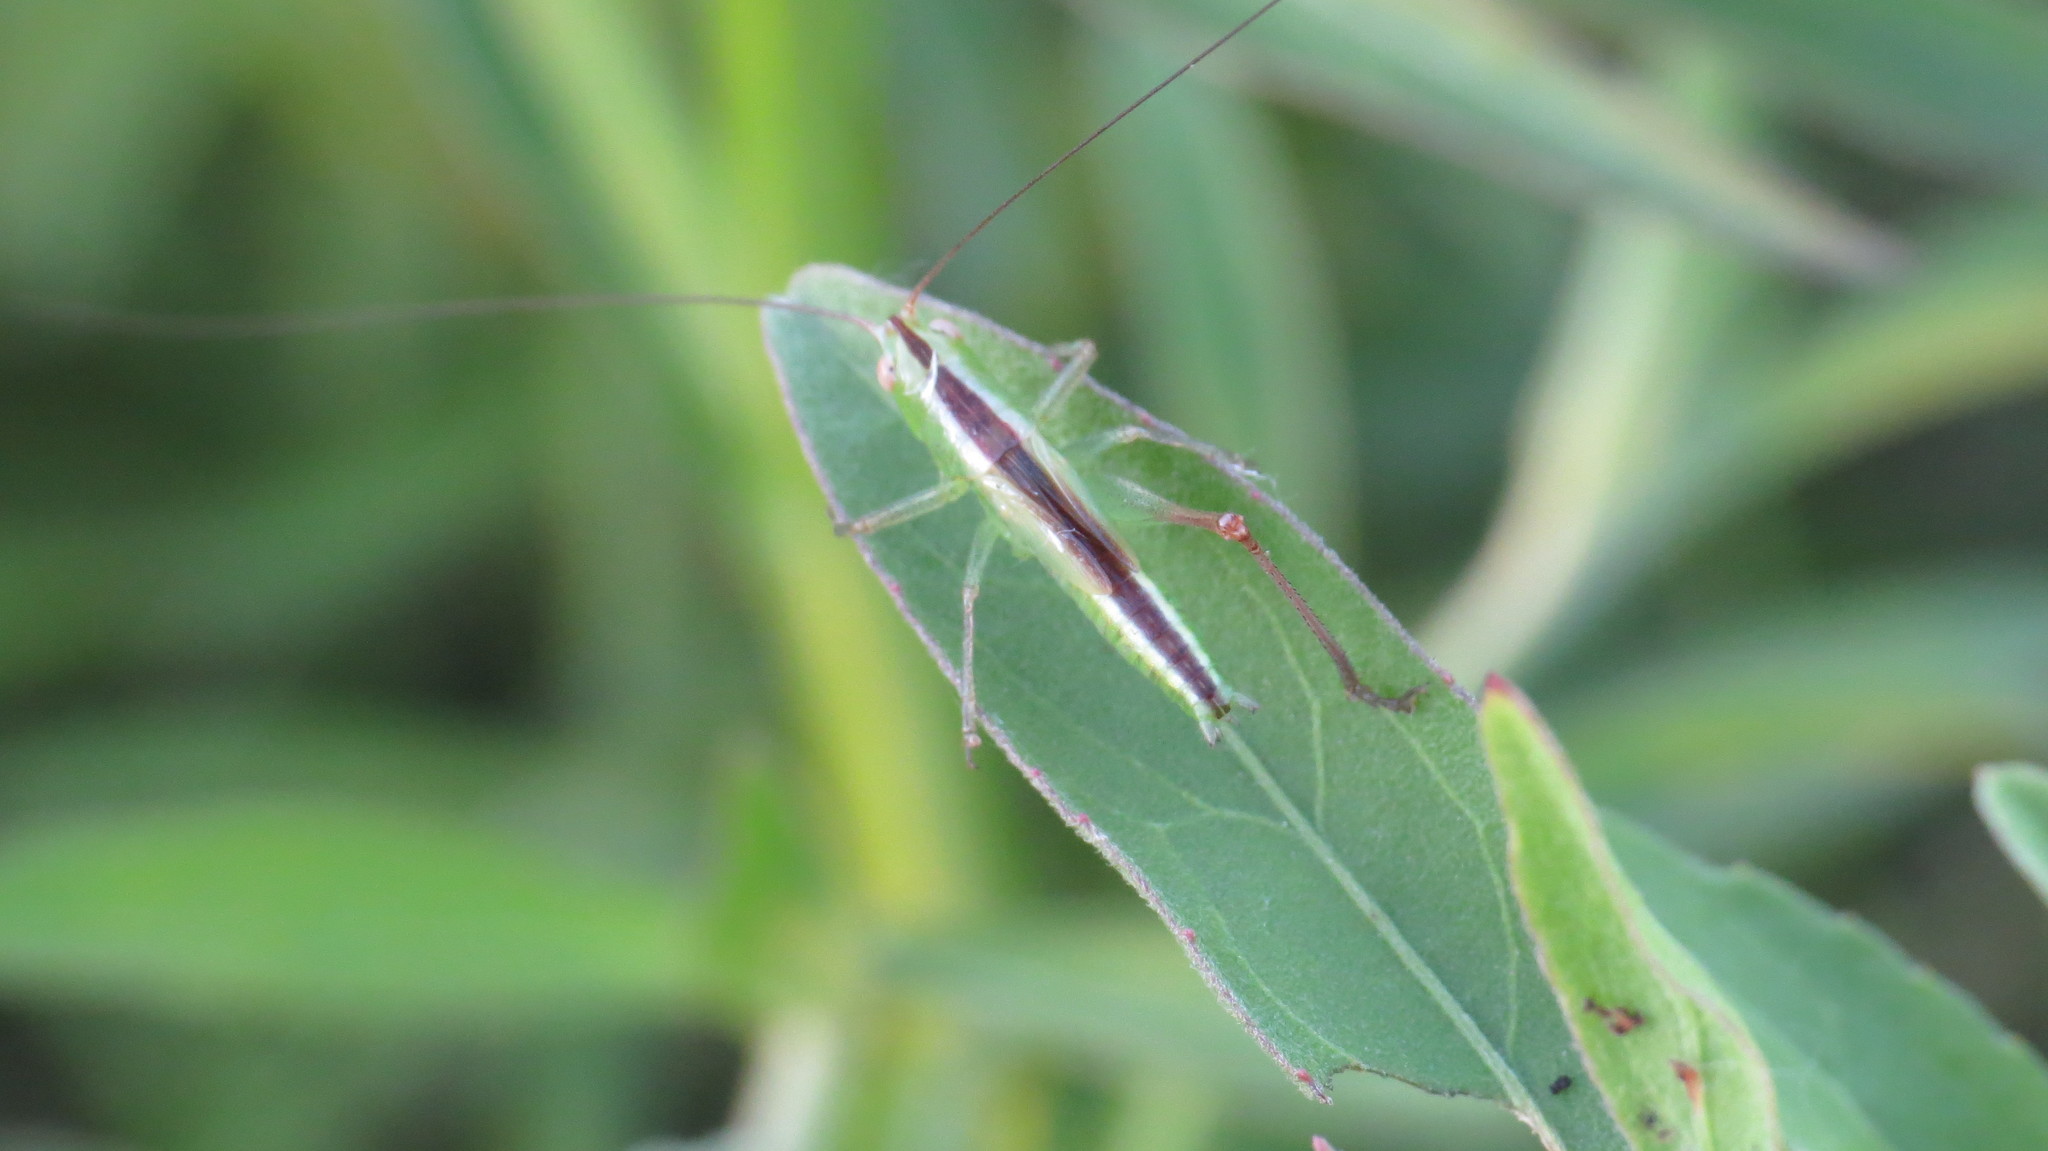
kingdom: Animalia
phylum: Arthropoda
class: Insecta
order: Orthoptera
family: Tettigoniidae
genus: Conocephalus
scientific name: Conocephalus longipes
